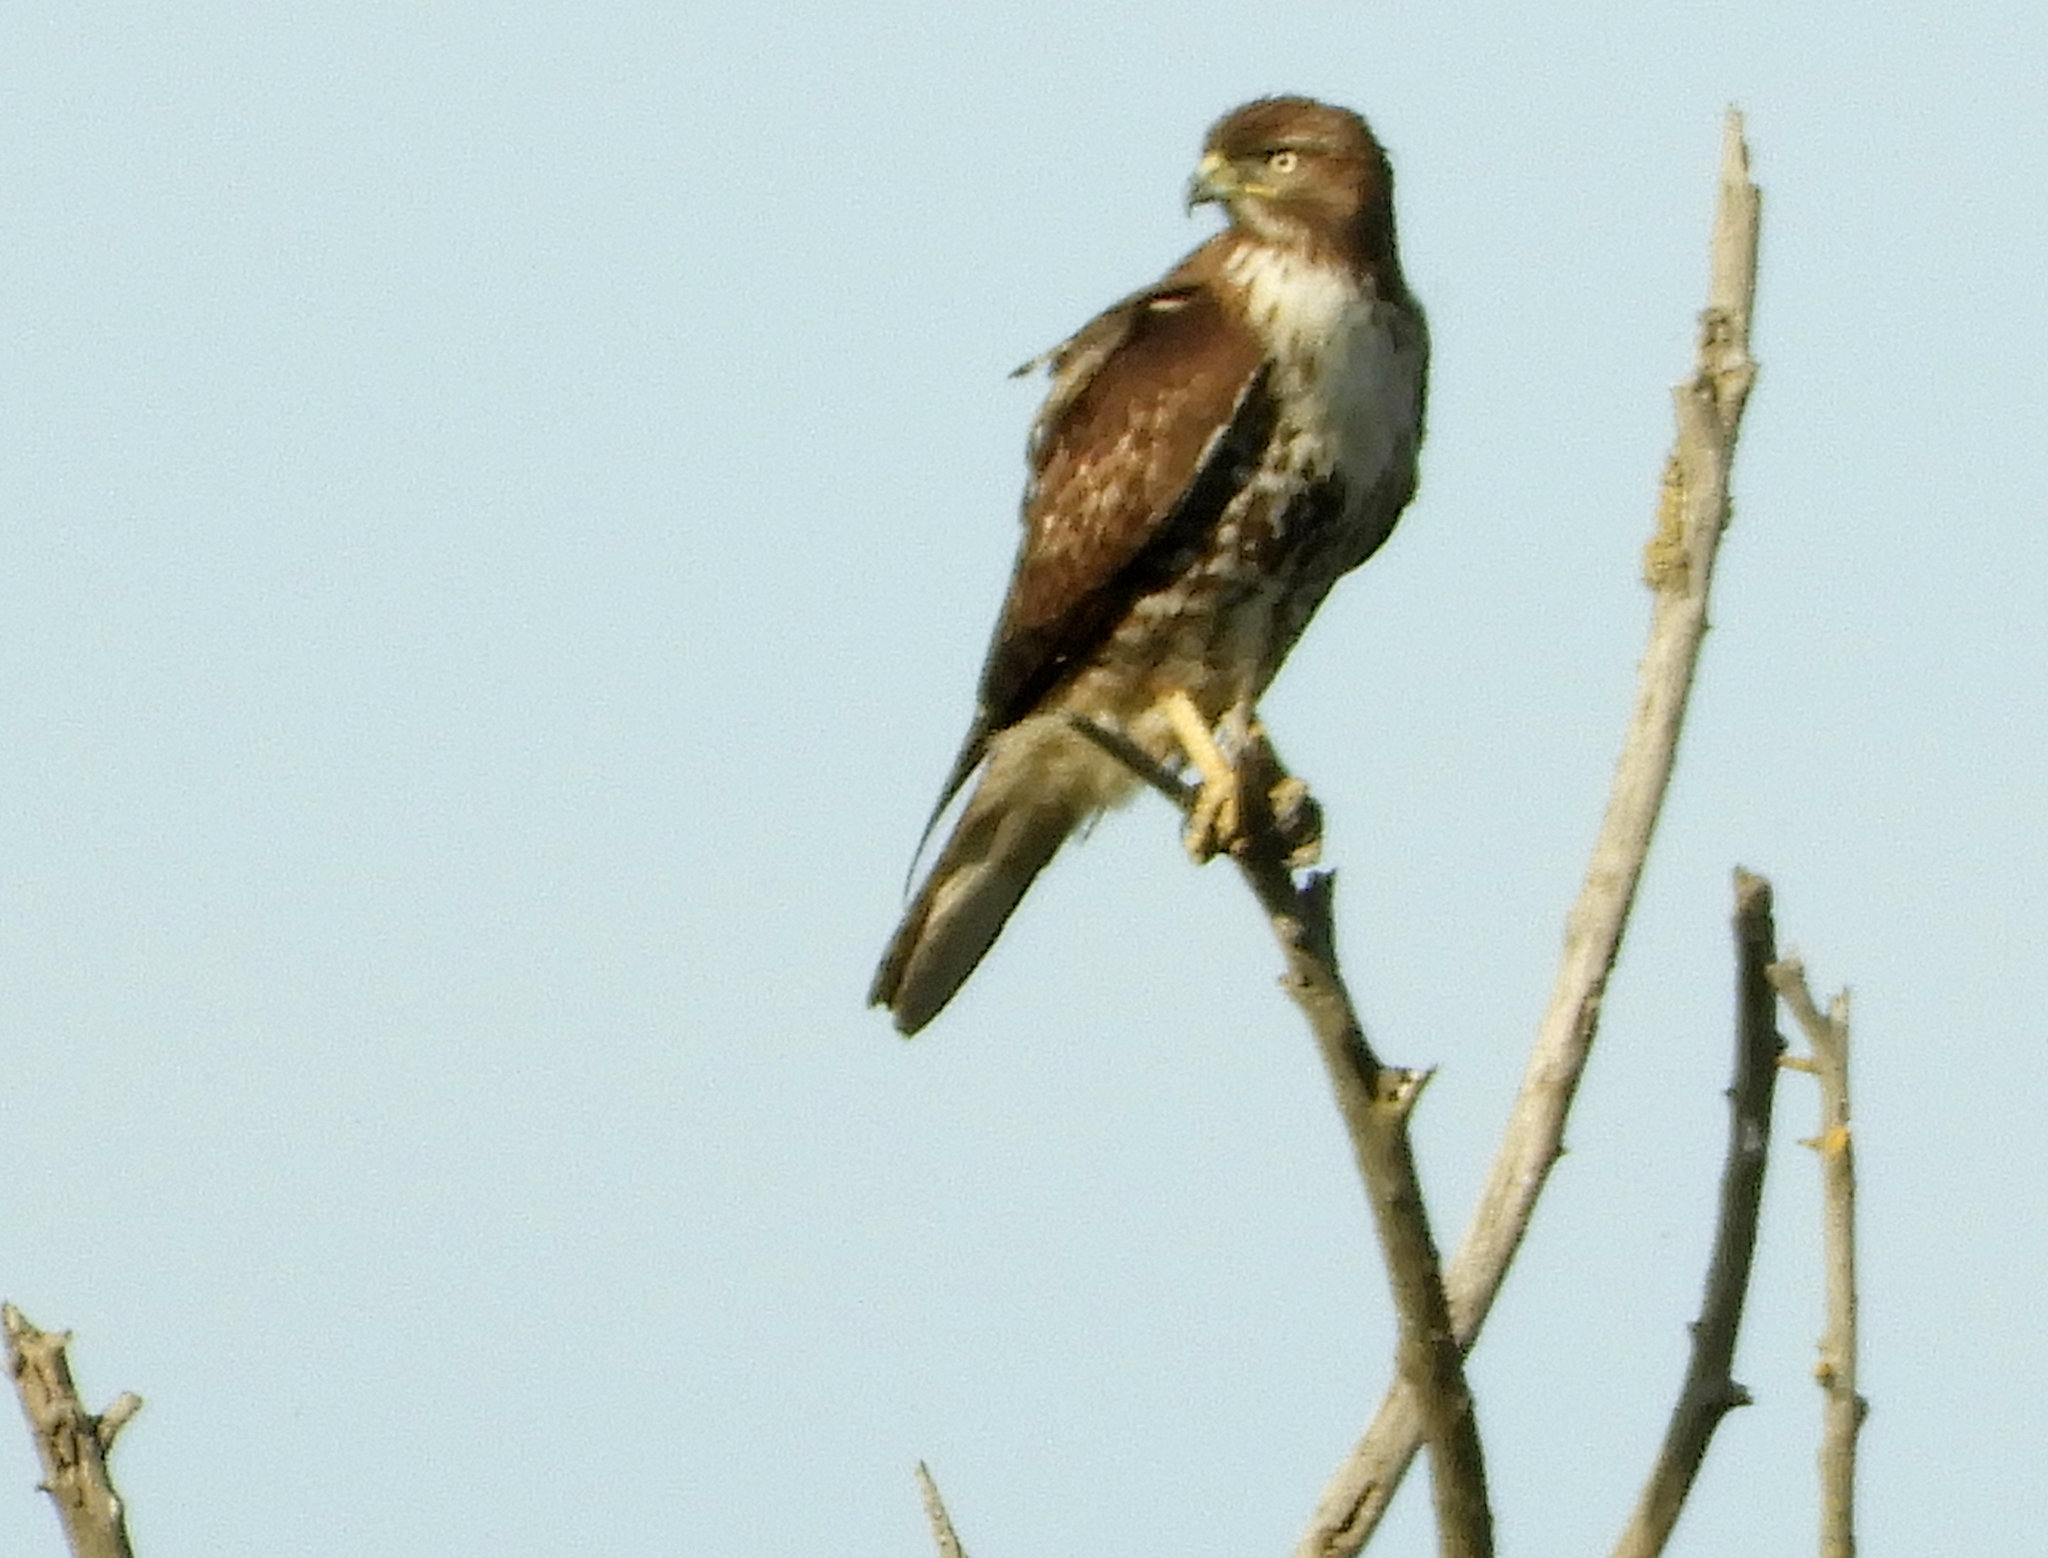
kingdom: Animalia
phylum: Chordata
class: Aves
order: Accipitriformes
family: Accipitridae
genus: Buteo
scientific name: Buteo jamaicensis
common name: Red-tailed hawk
